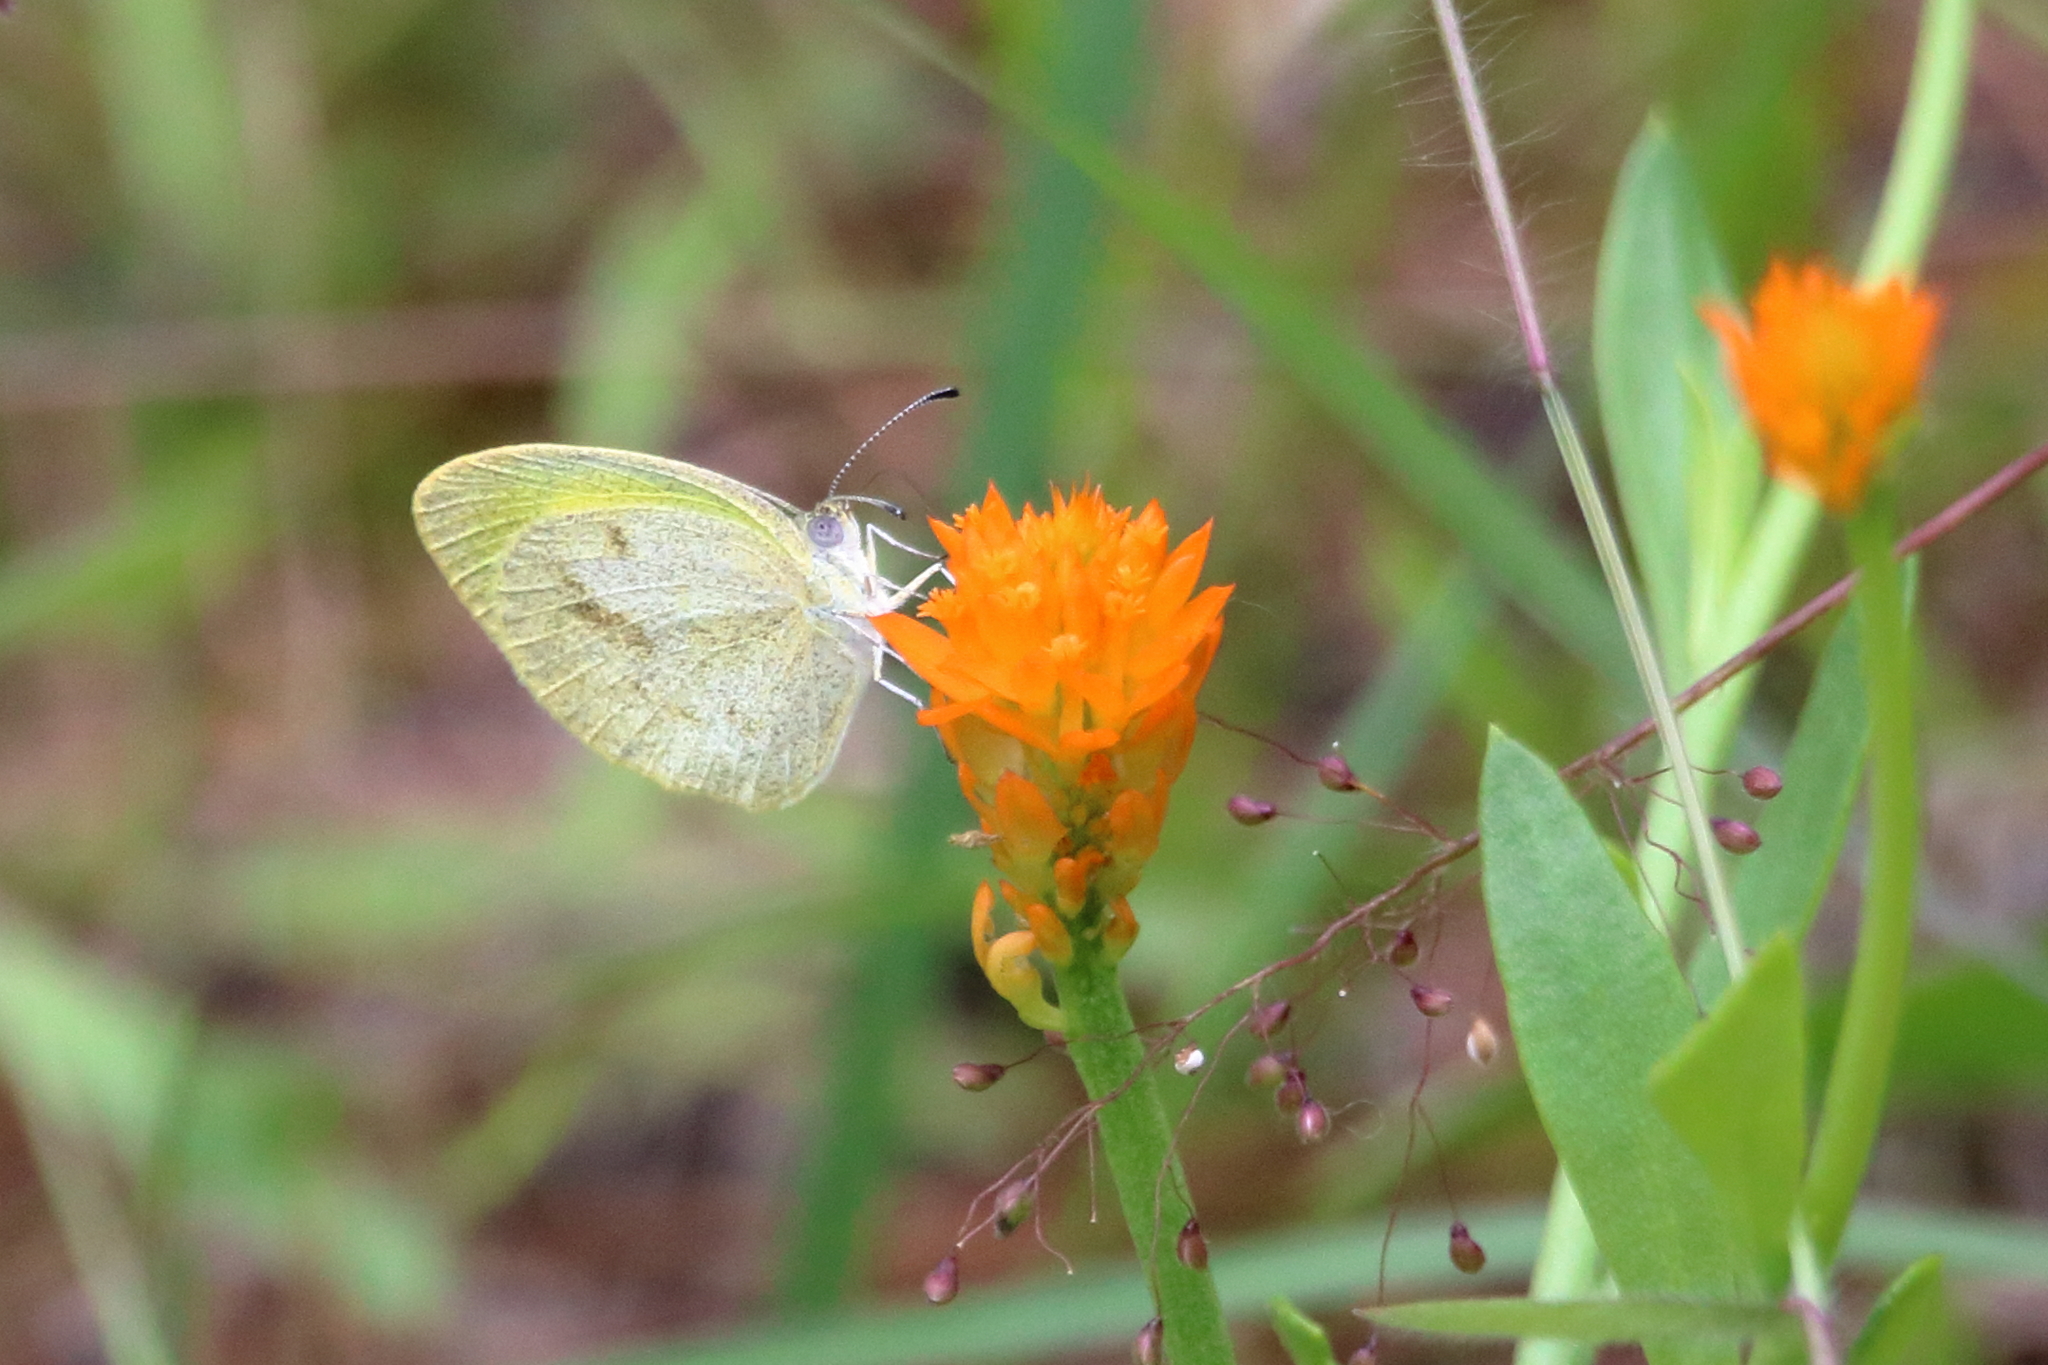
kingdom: Animalia
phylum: Arthropoda
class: Insecta
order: Lepidoptera
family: Pieridae
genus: Eurema
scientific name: Eurema daira
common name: Barred sulphur
